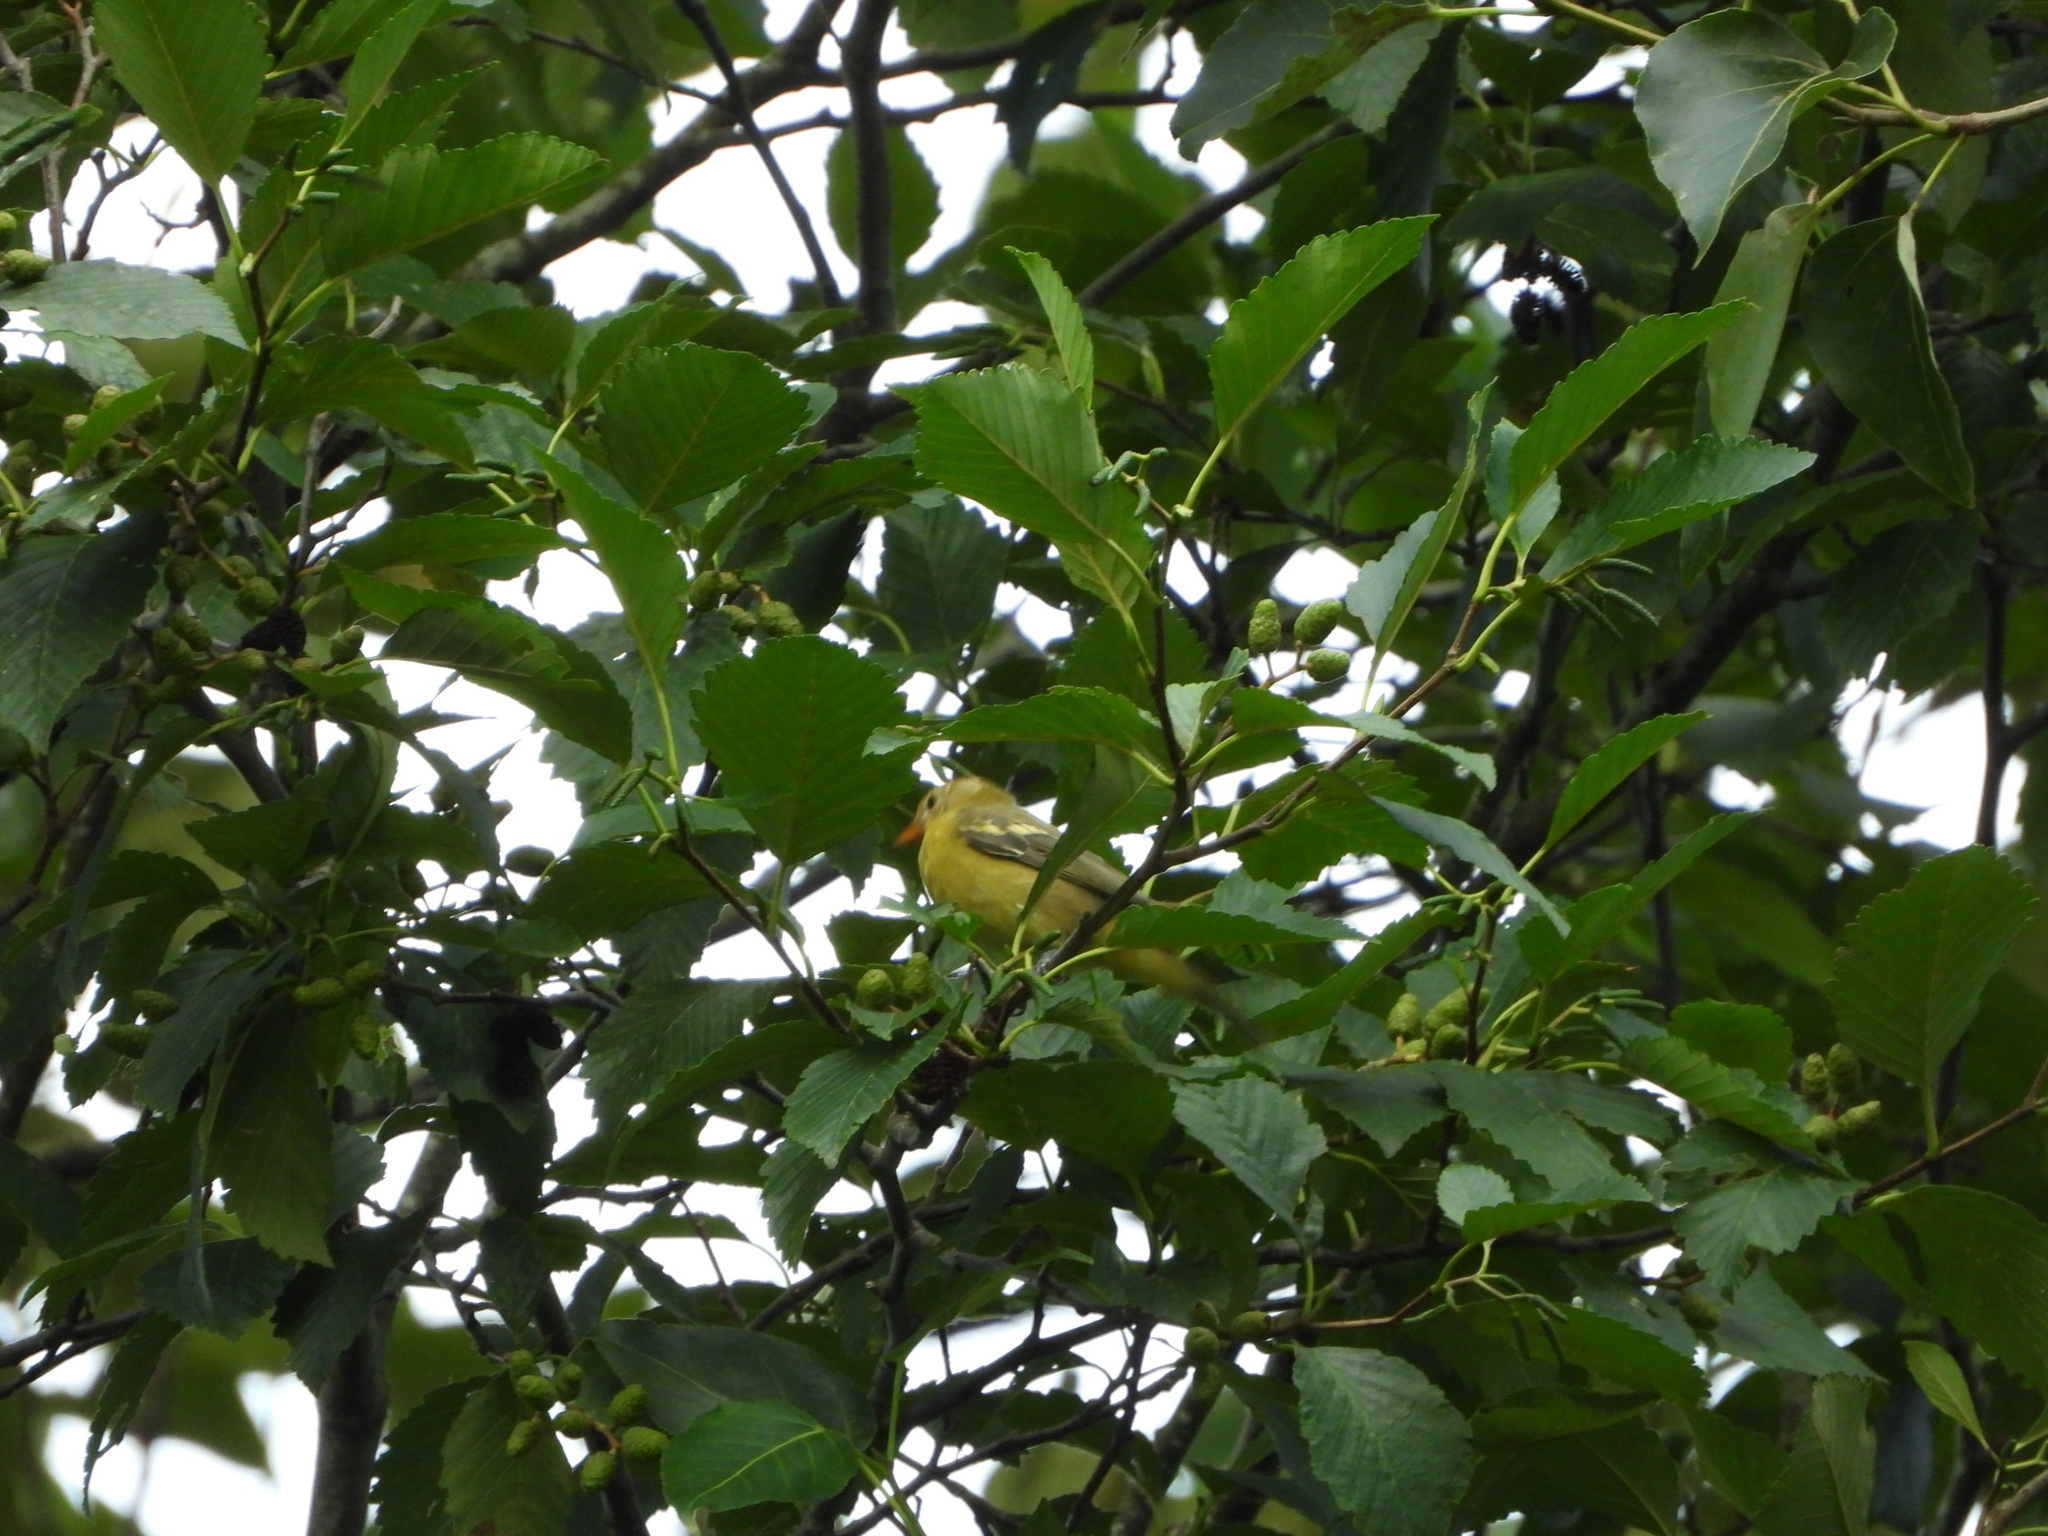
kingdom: Animalia
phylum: Chordata
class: Aves
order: Passeriformes
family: Cardinalidae
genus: Piranga
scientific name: Piranga ludoviciana
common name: Western tanager
